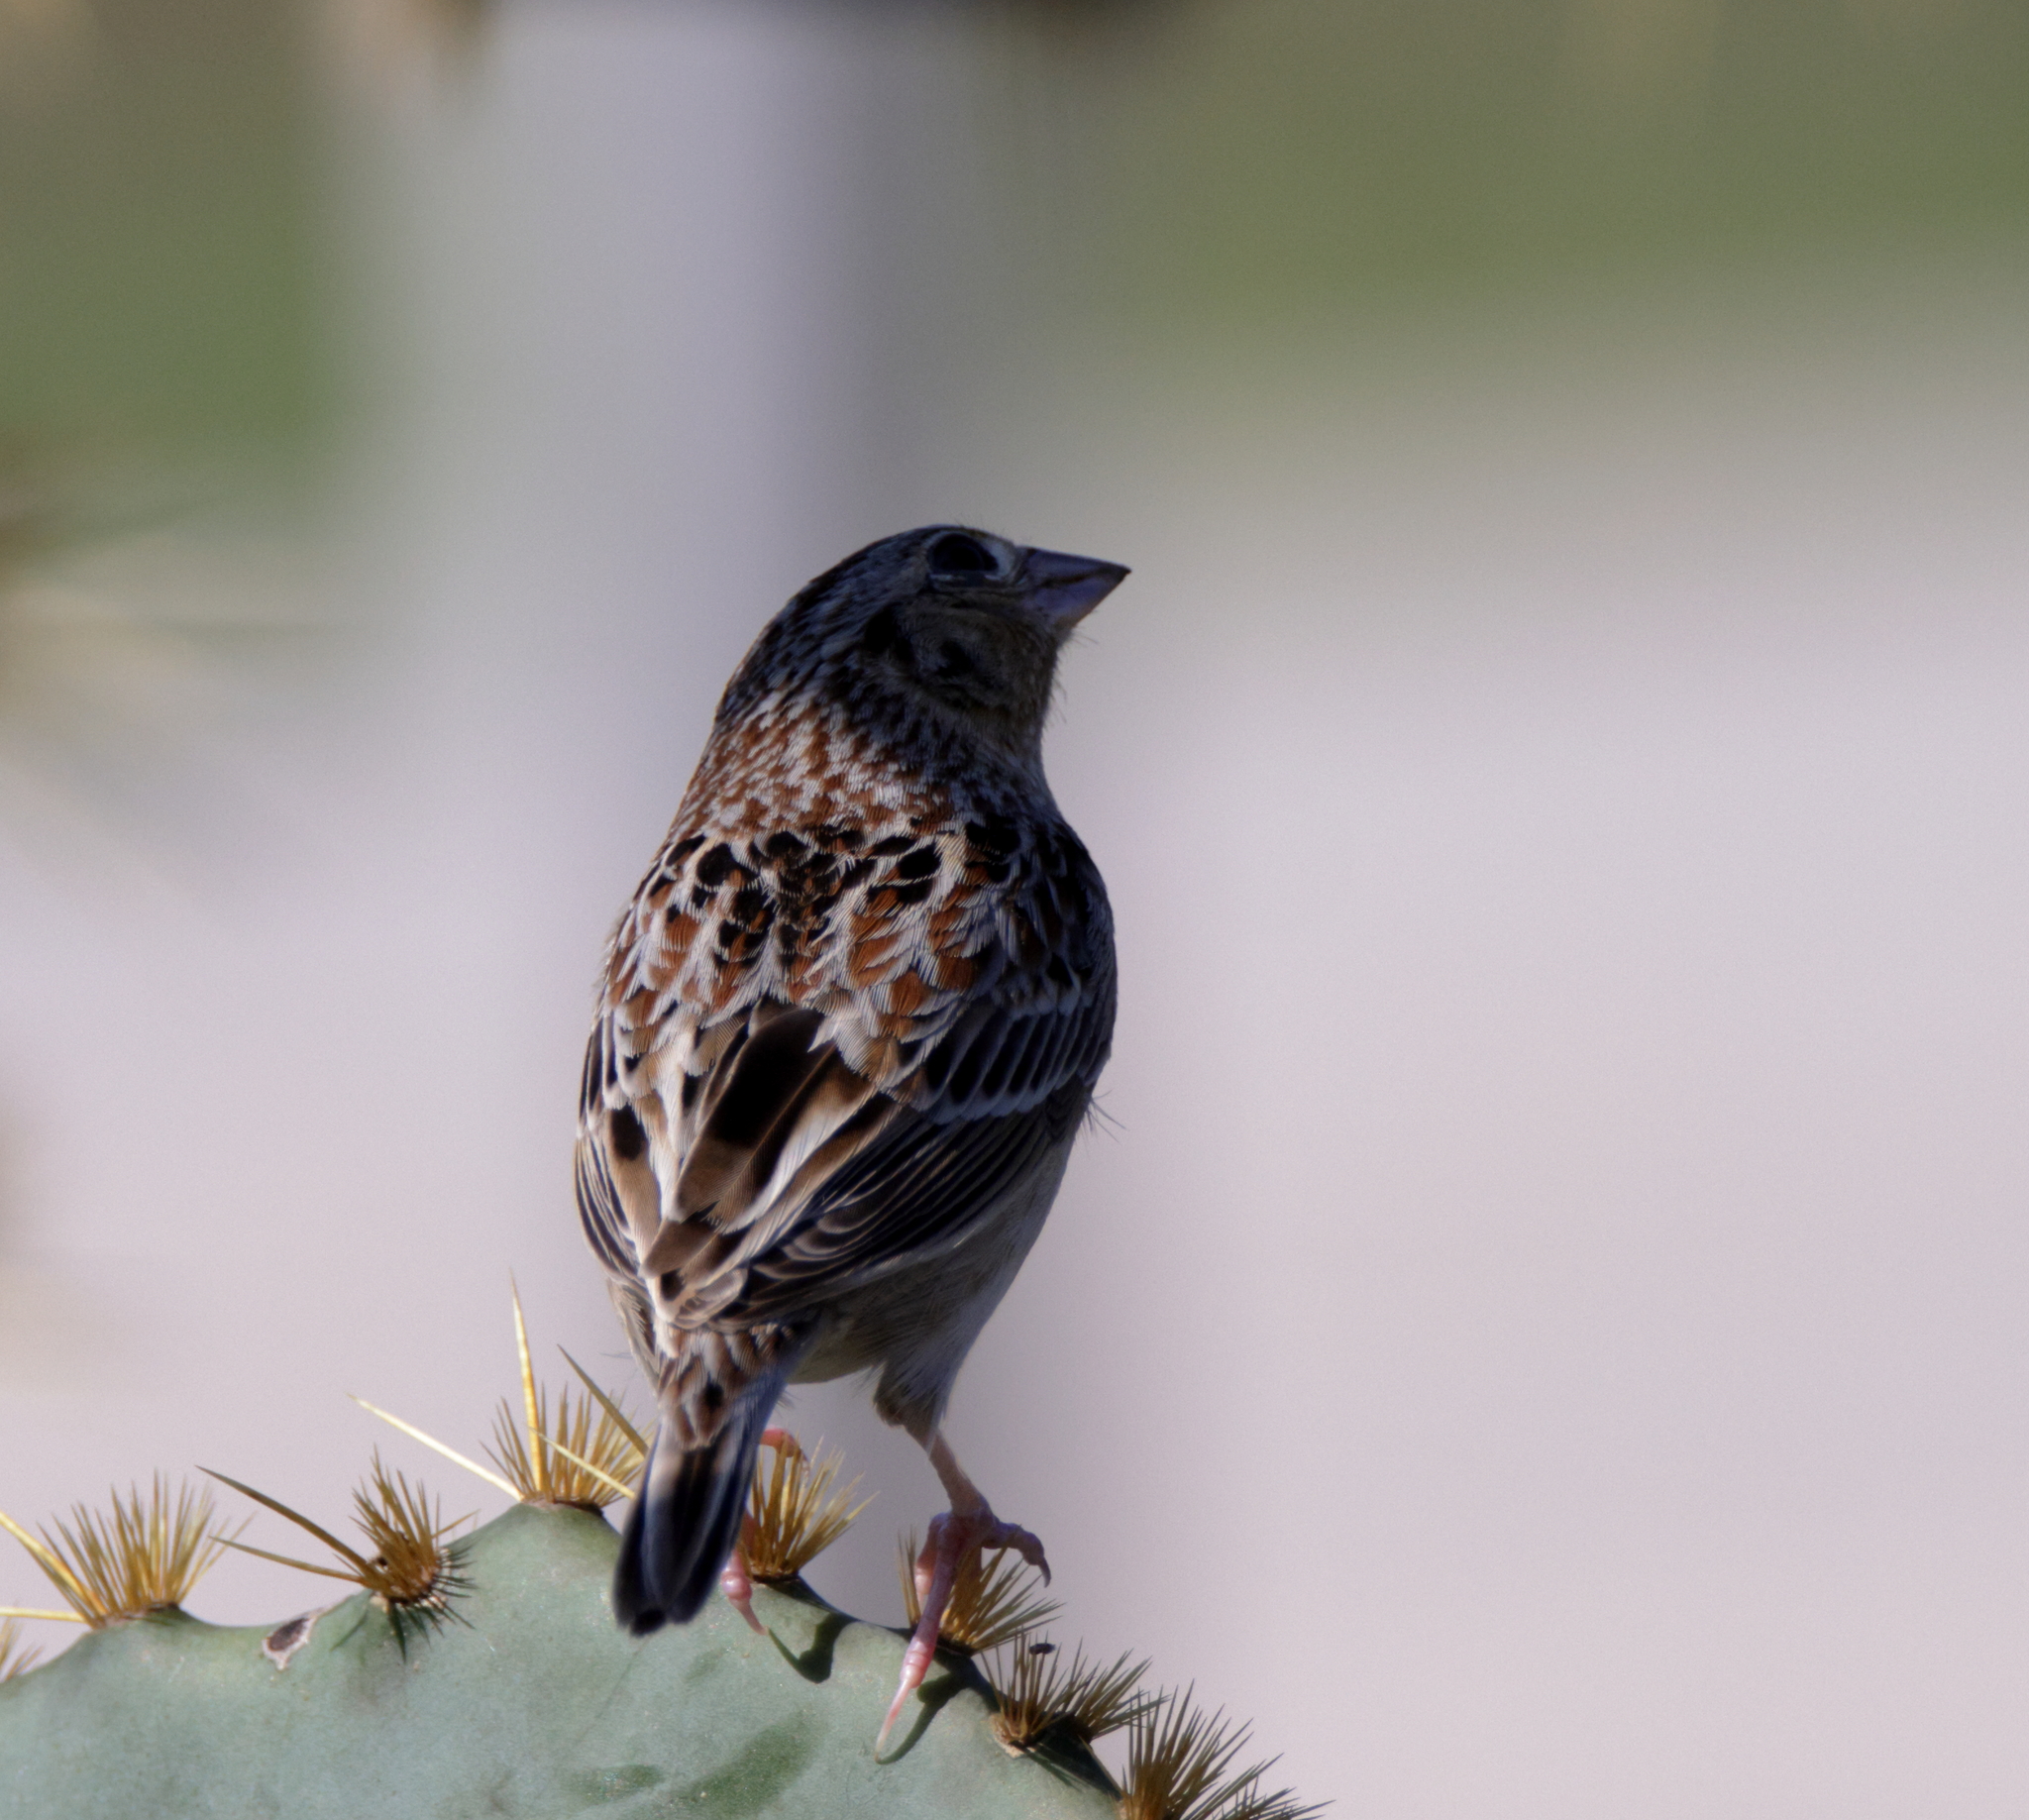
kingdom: Animalia
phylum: Chordata
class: Aves
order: Passeriformes
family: Passerellidae
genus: Ammodramus
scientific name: Ammodramus savannarum
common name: Grasshopper sparrow
